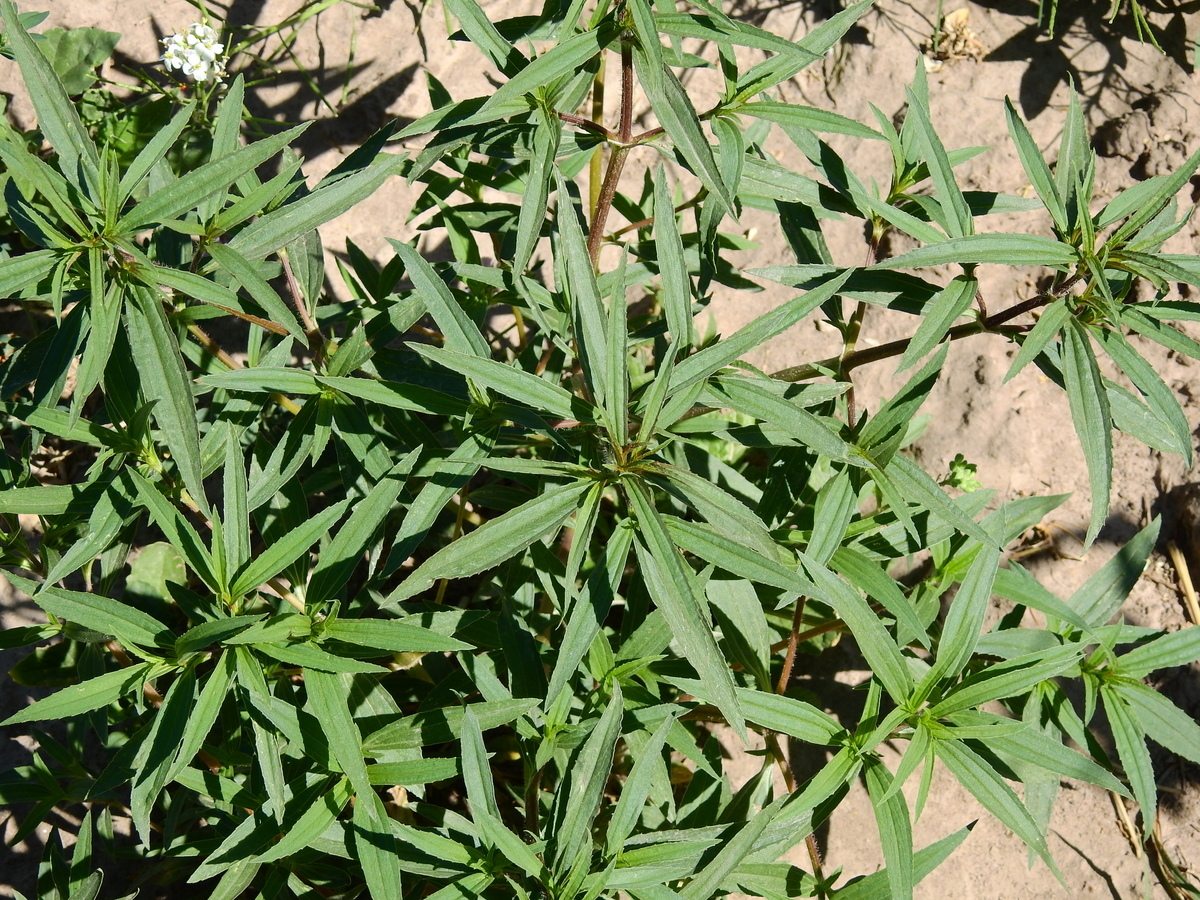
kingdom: Plantae
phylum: Tracheophyta
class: Magnoliopsida
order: Asterales
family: Asteraceae
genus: Flaveria
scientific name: Flaveria bidentis
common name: Coastal plain yellowtops
